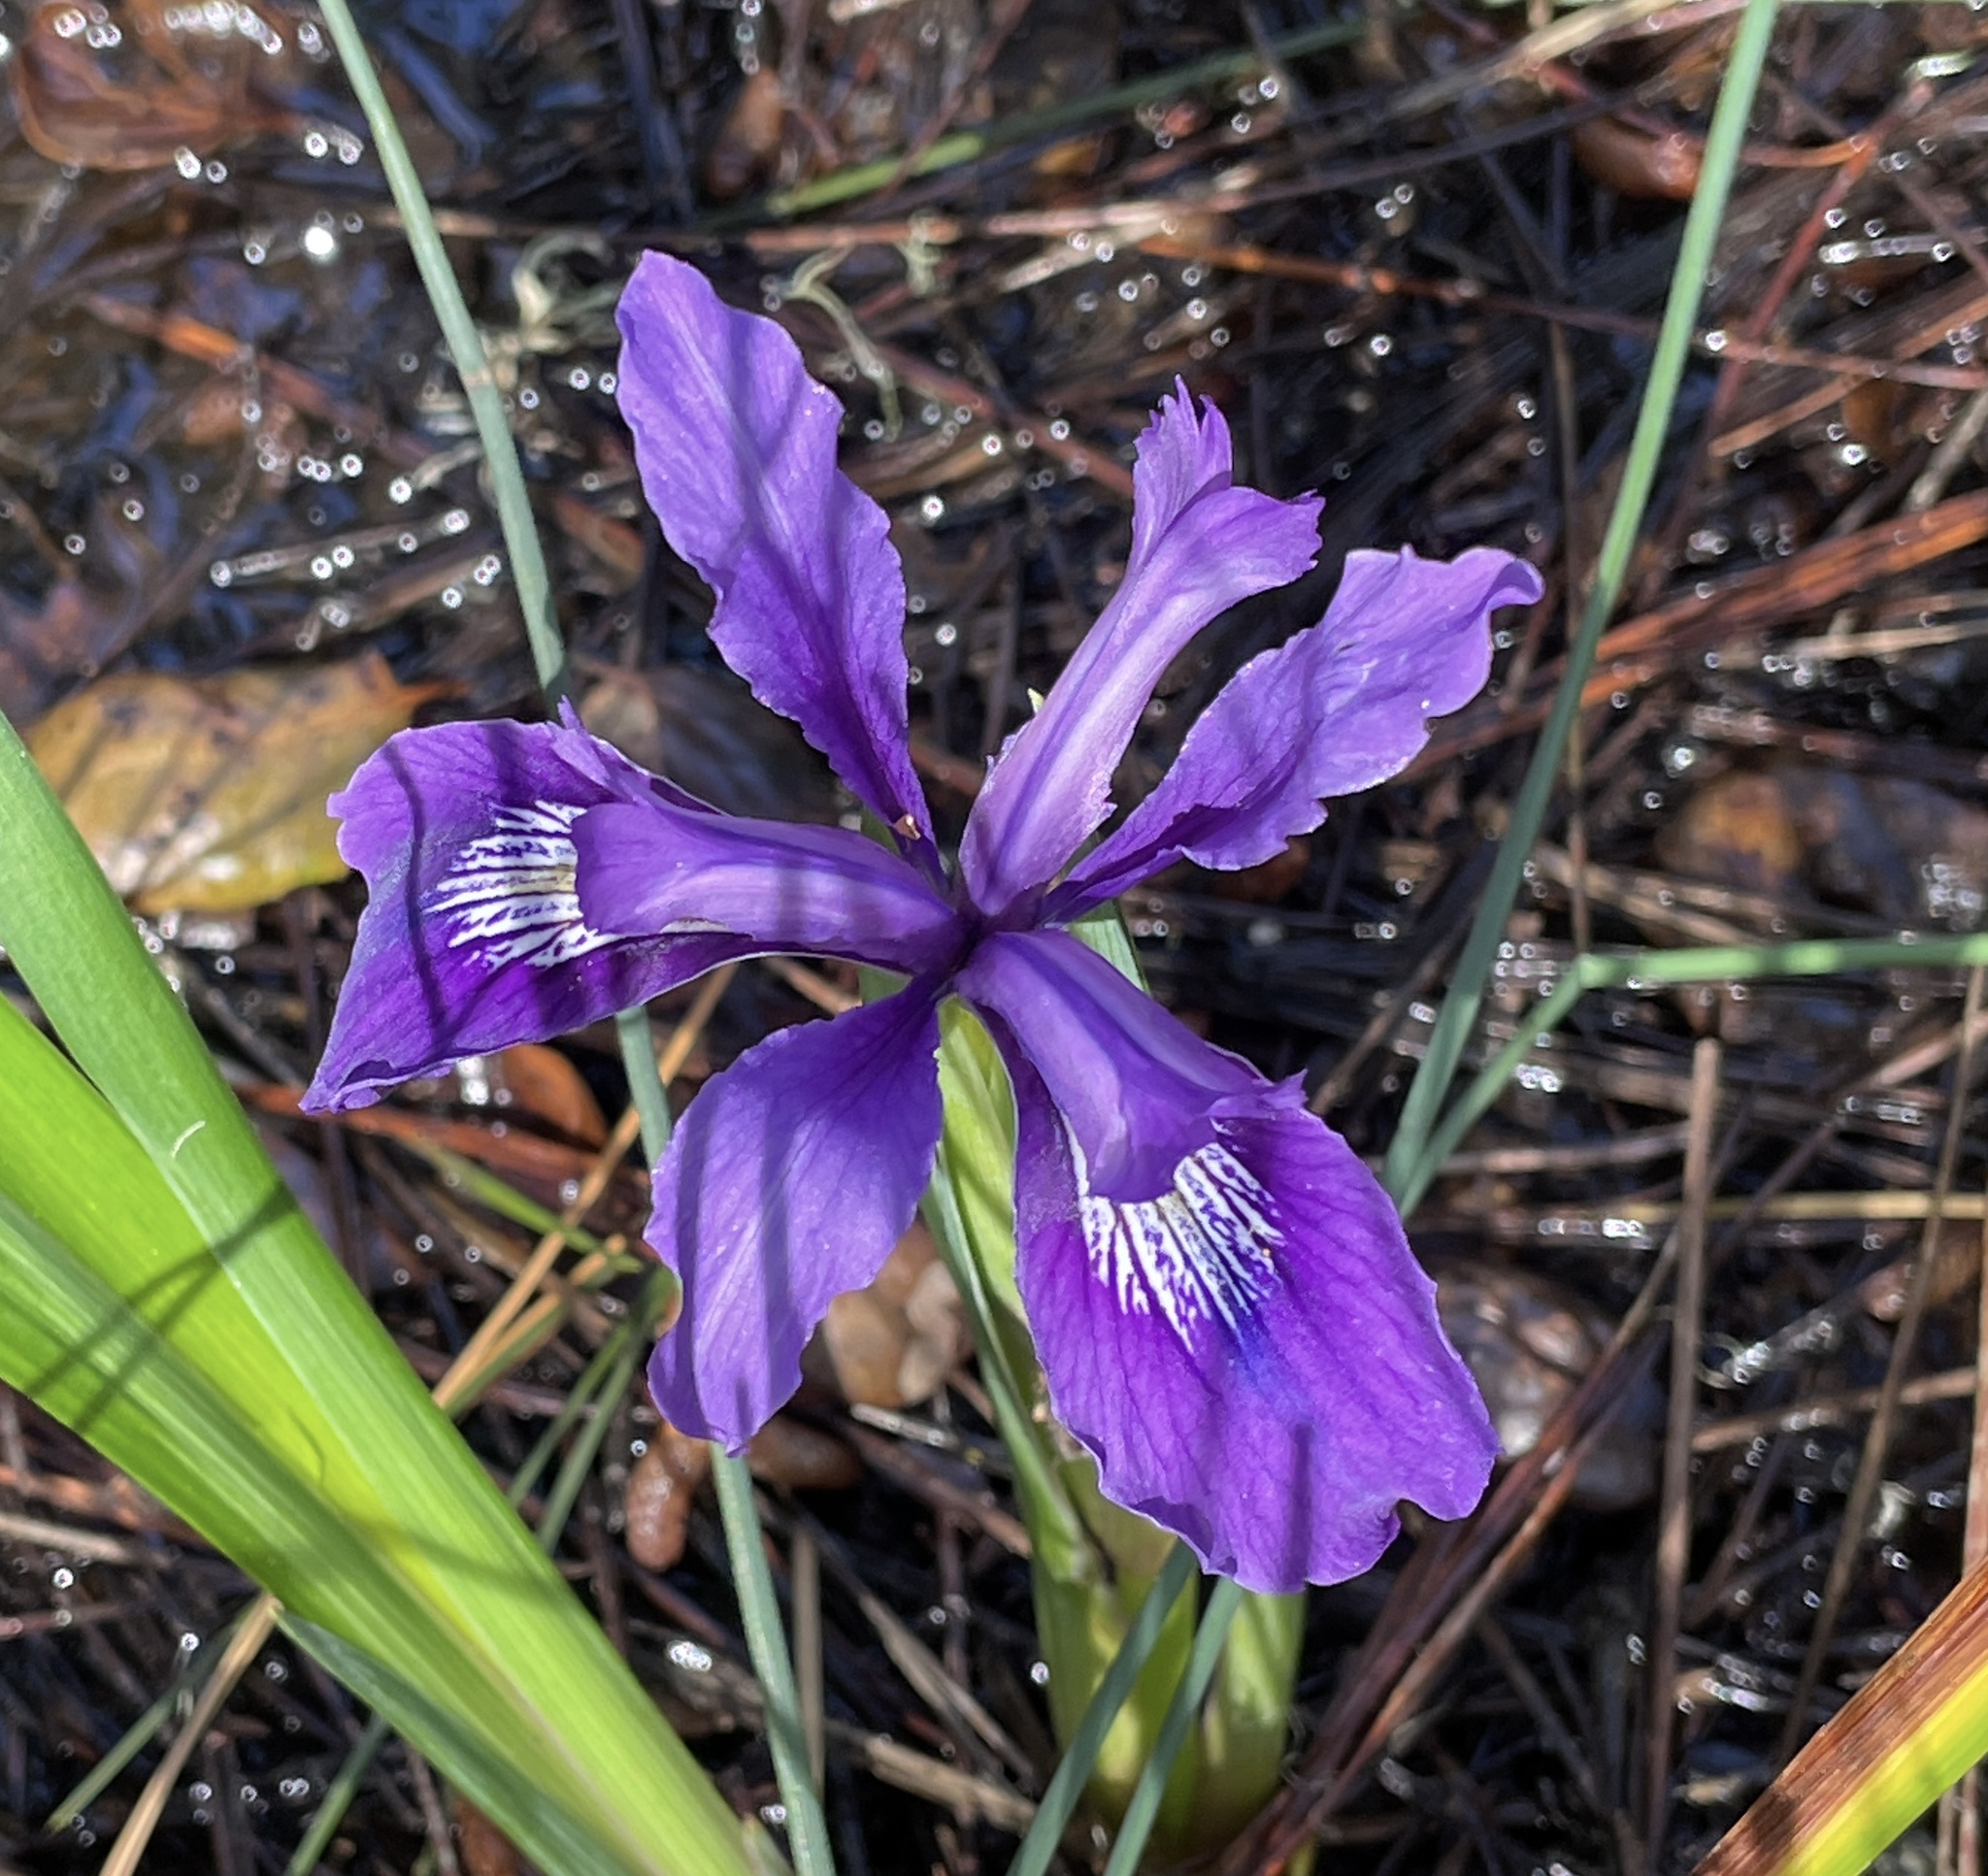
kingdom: Plantae
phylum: Tracheophyta
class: Liliopsida
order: Asparagales
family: Iridaceae
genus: Iris
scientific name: Iris douglasiana
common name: Marin iris
